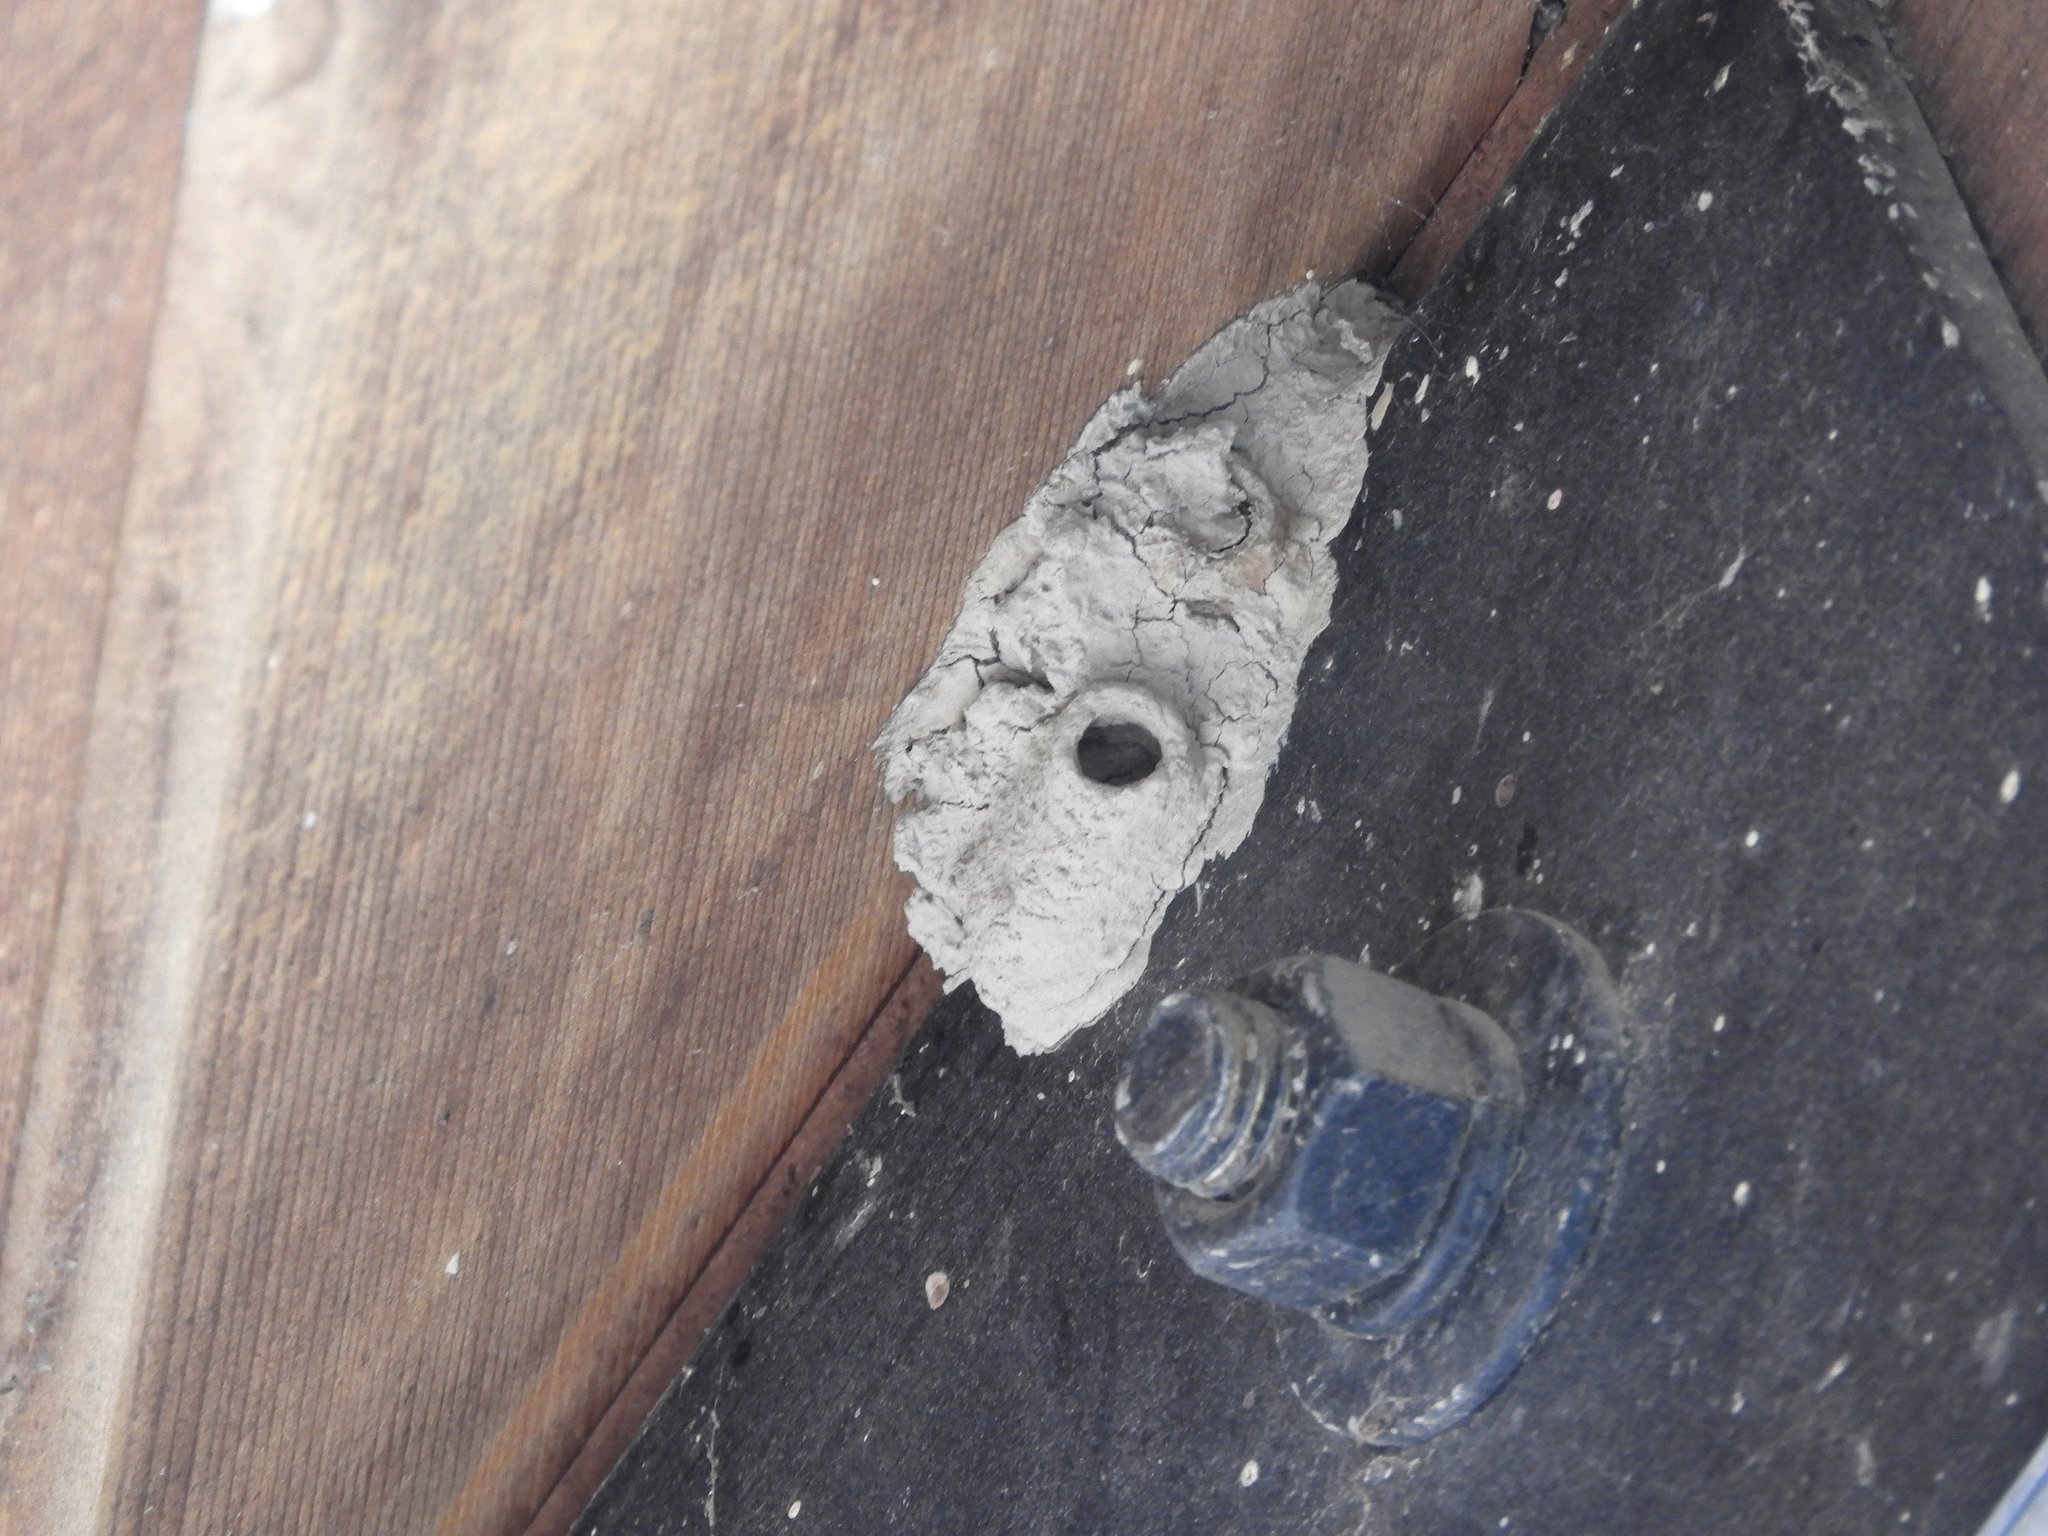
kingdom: Animalia
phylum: Arthropoda
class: Insecta
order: Hymenoptera
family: Sphecidae
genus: Sceliphron
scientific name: Sceliphron caementarium
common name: Mud dauber
